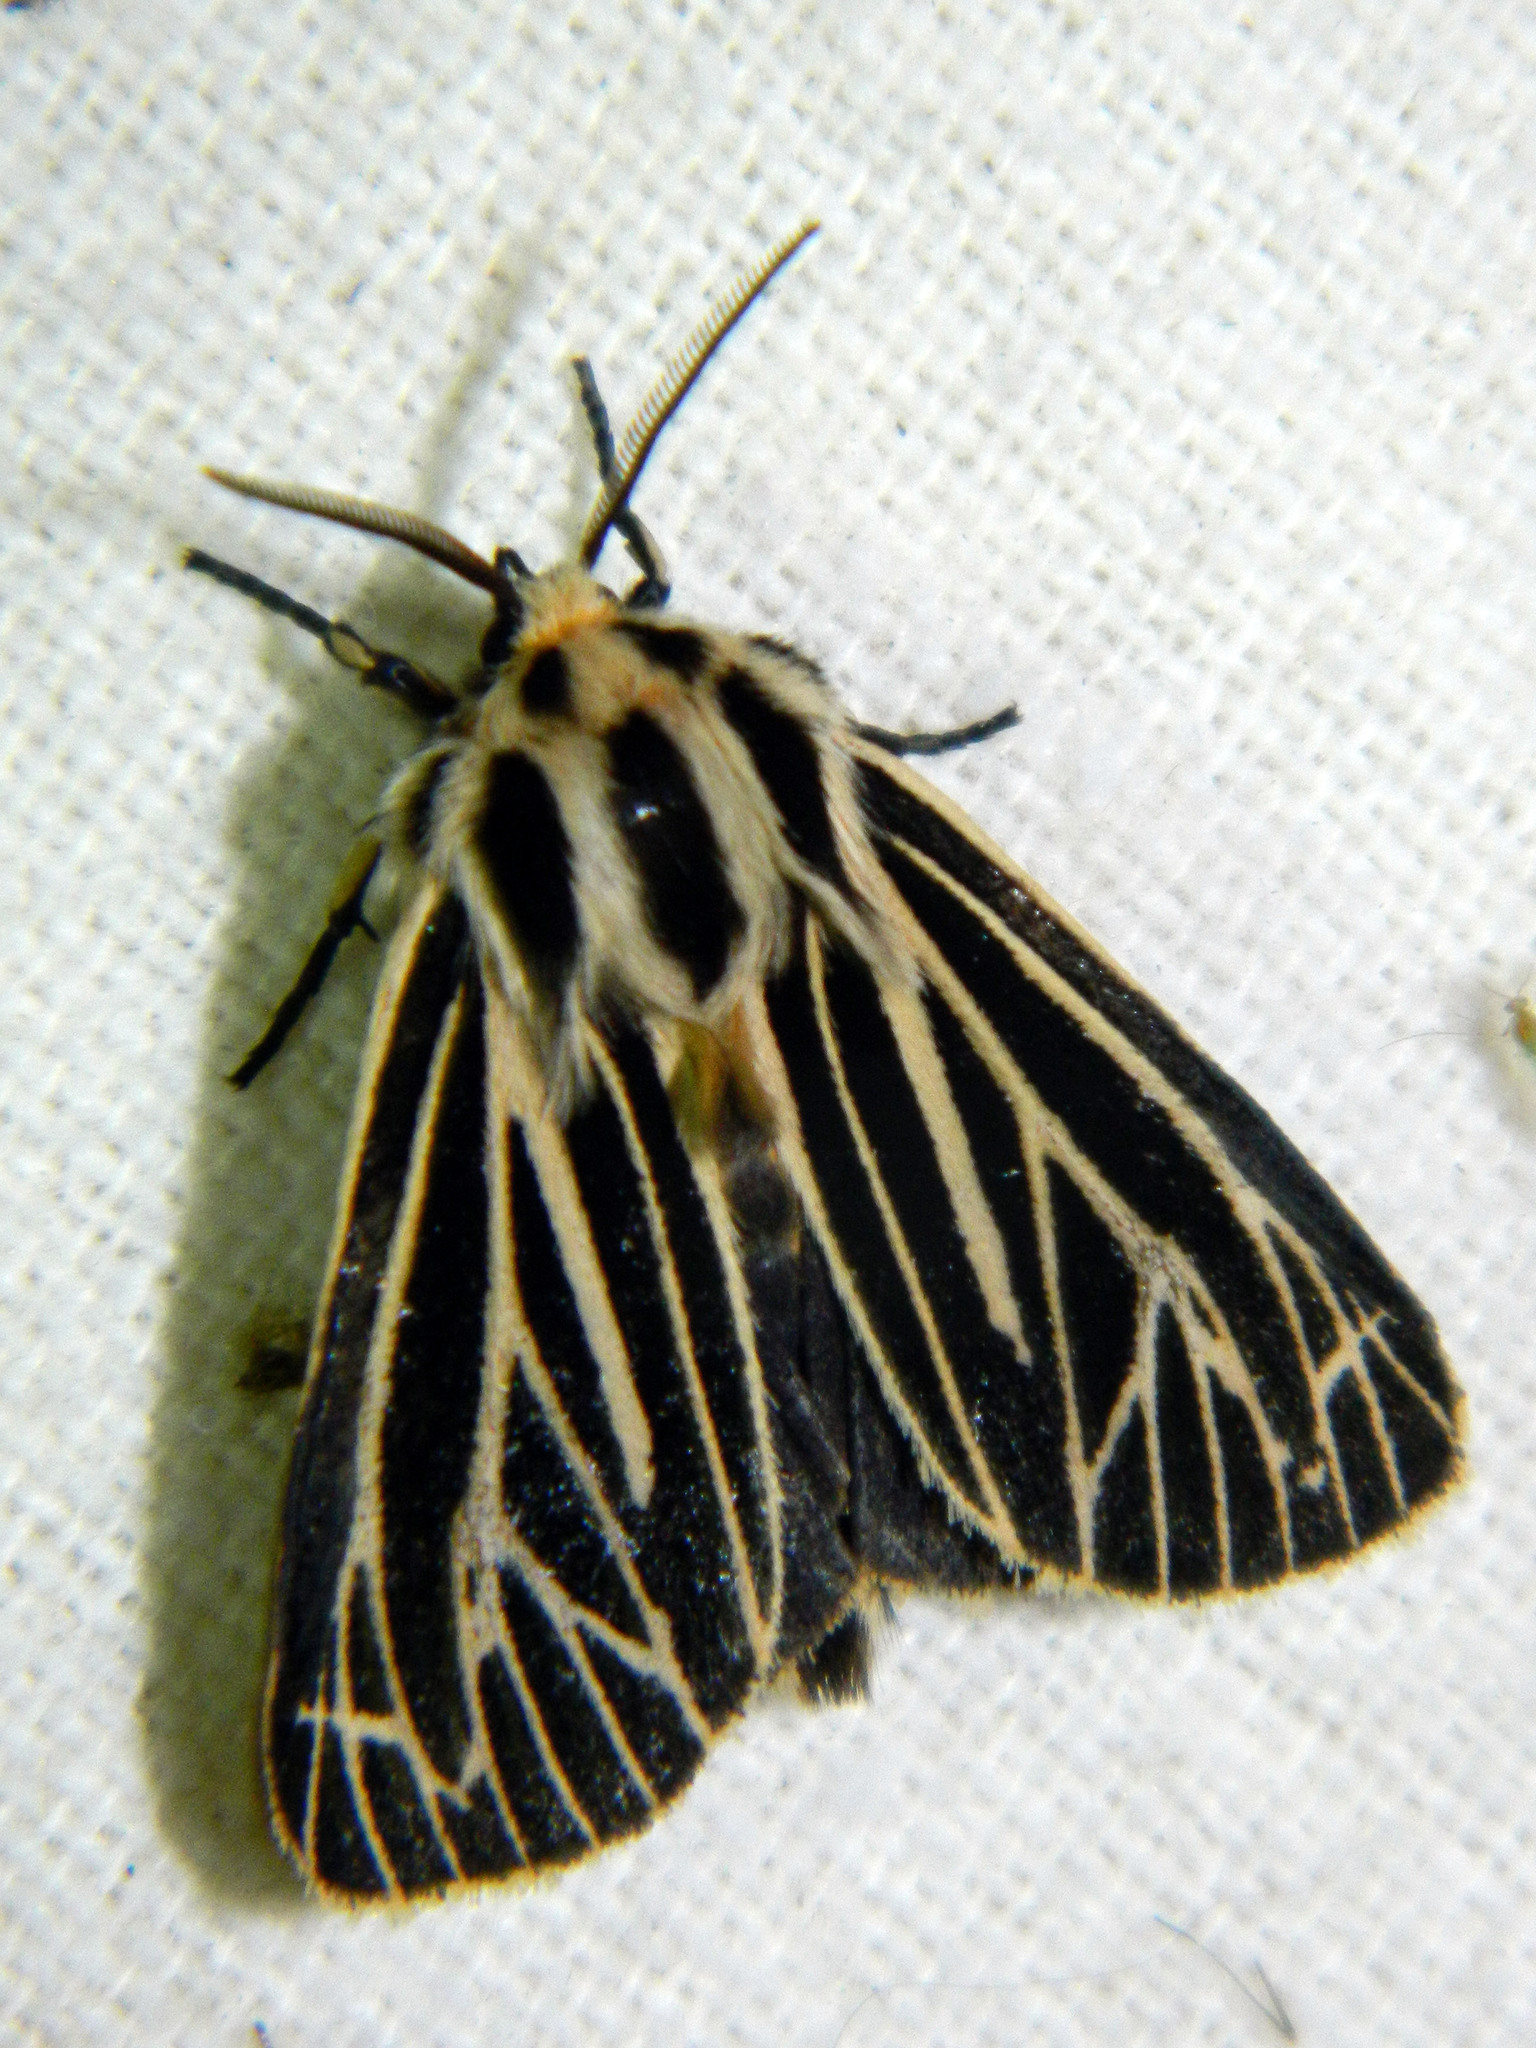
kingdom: Animalia
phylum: Arthropoda
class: Insecta
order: Lepidoptera
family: Erebidae
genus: Grammia
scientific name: Grammia virguncula
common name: Little tiger moth
